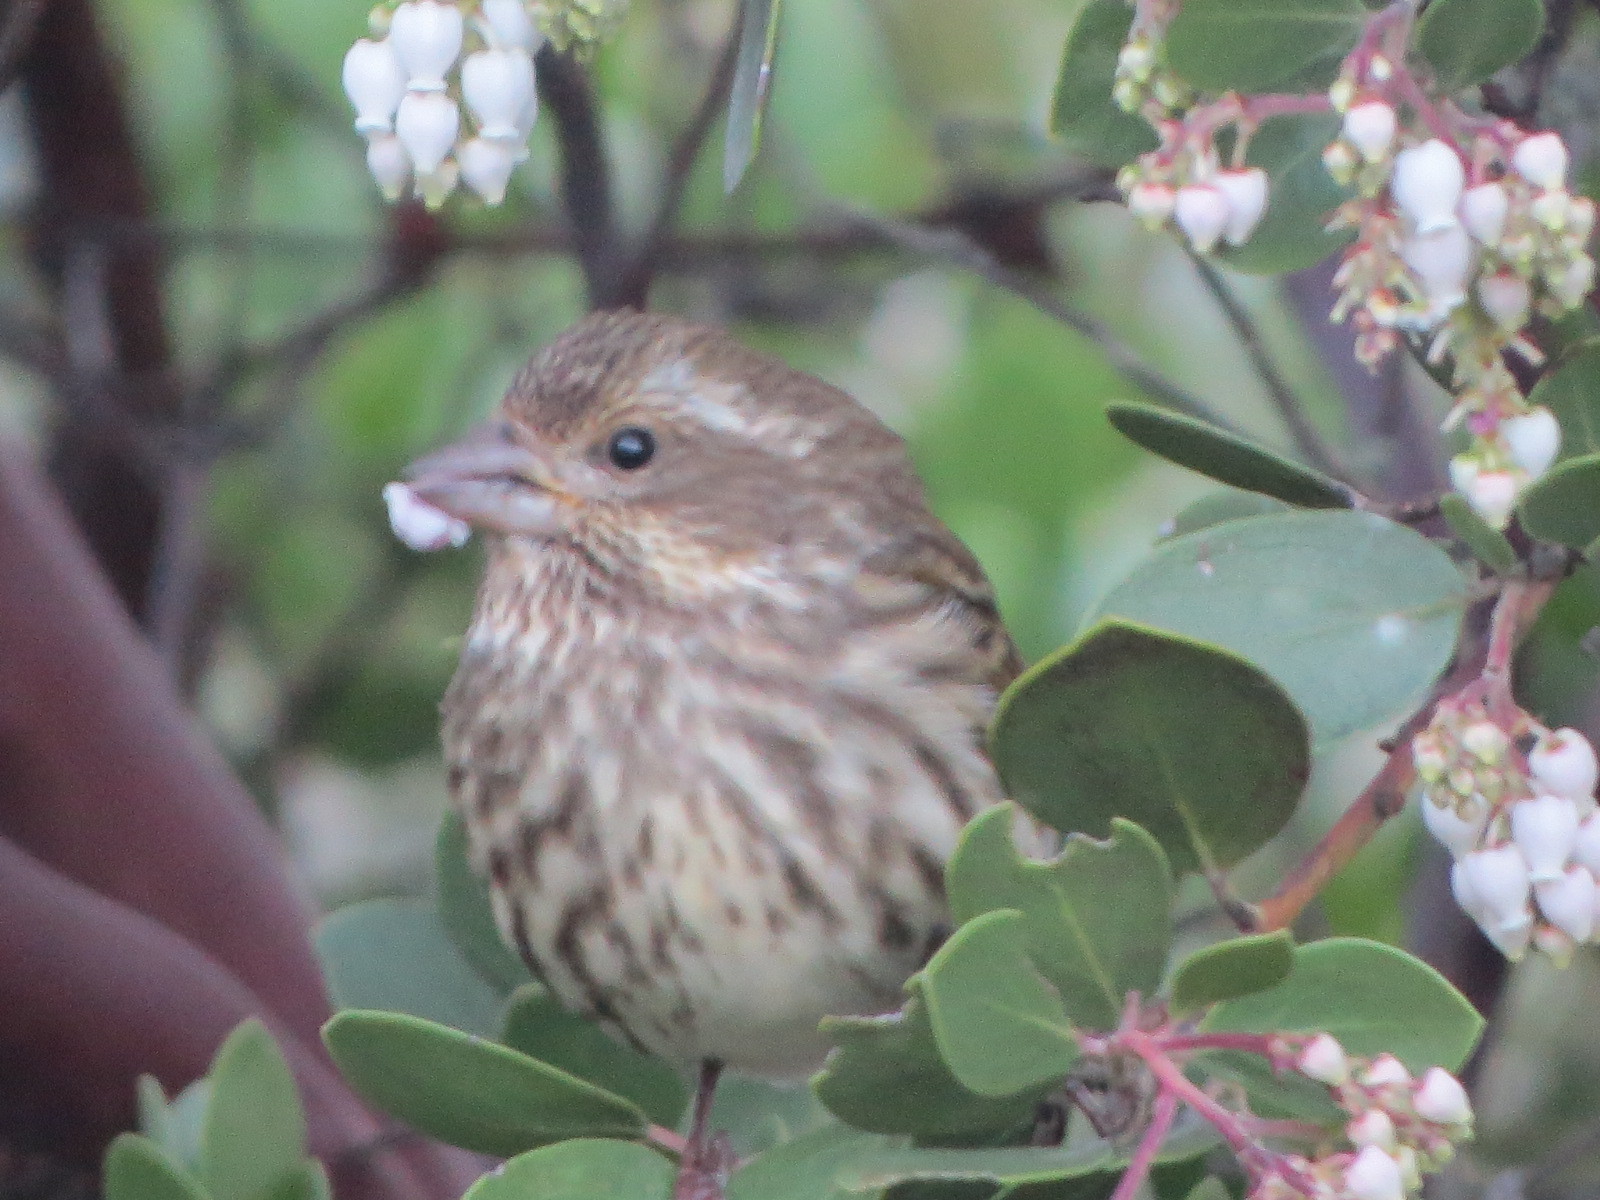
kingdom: Animalia
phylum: Chordata
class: Aves
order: Passeriformes
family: Fringillidae
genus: Haemorhous
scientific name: Haemorhous purpureus
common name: Purple finch
